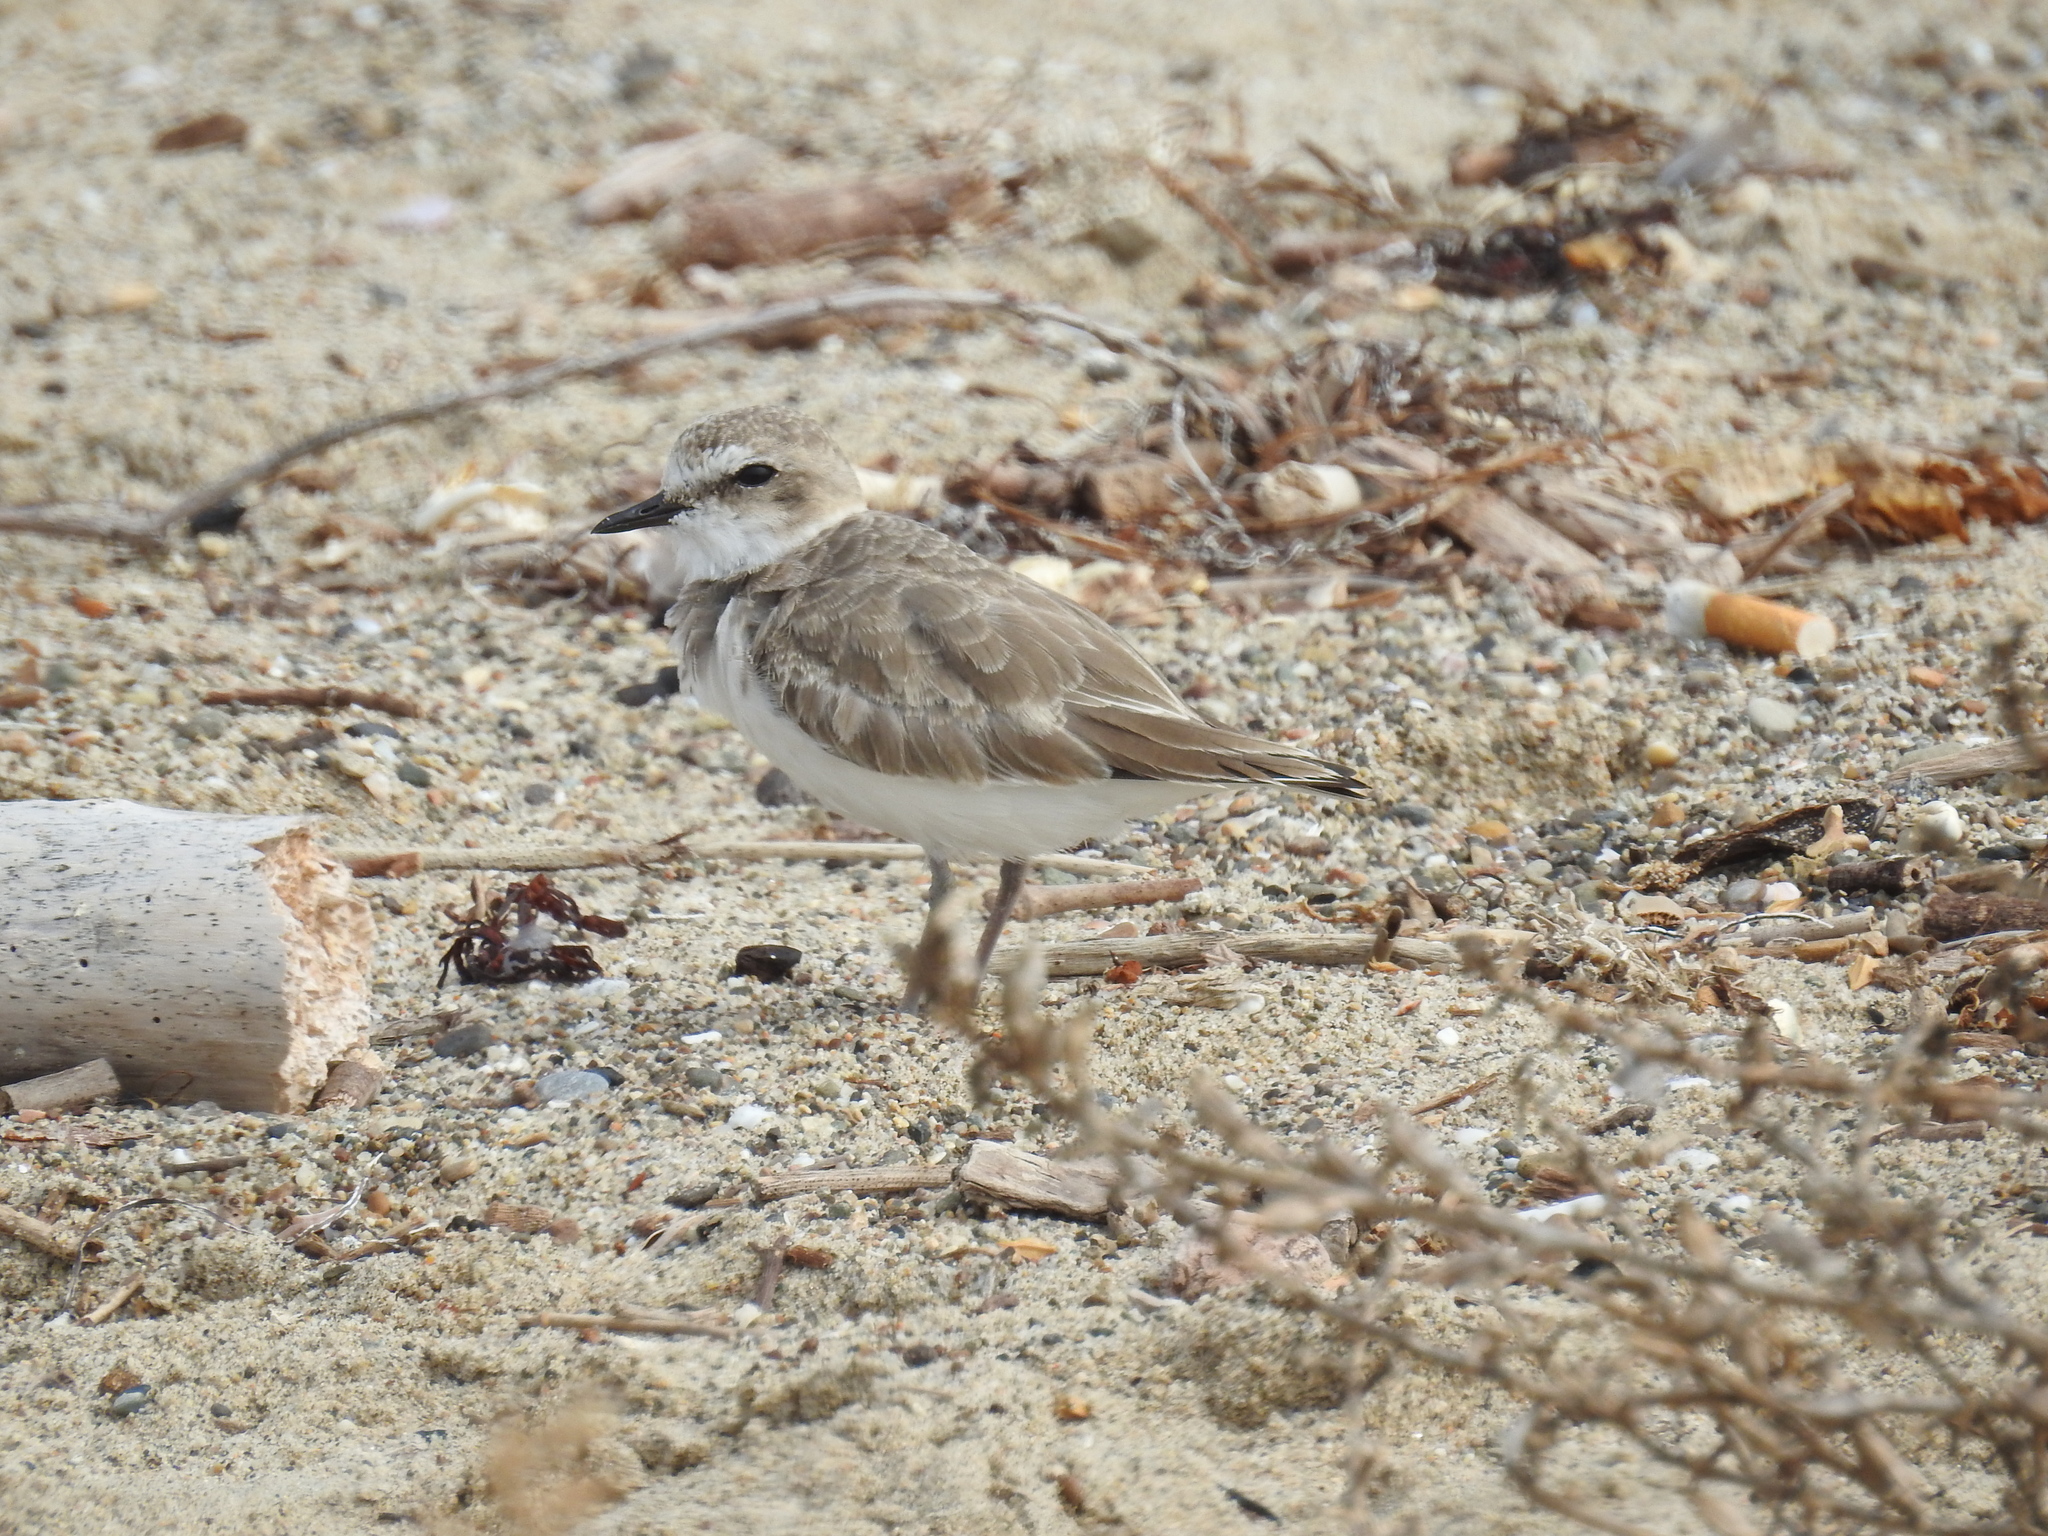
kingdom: Animalia
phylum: Chordata
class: Aves
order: Charadriiformes
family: Charadriidae
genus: Anarhynchus
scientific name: Anarhynchus
